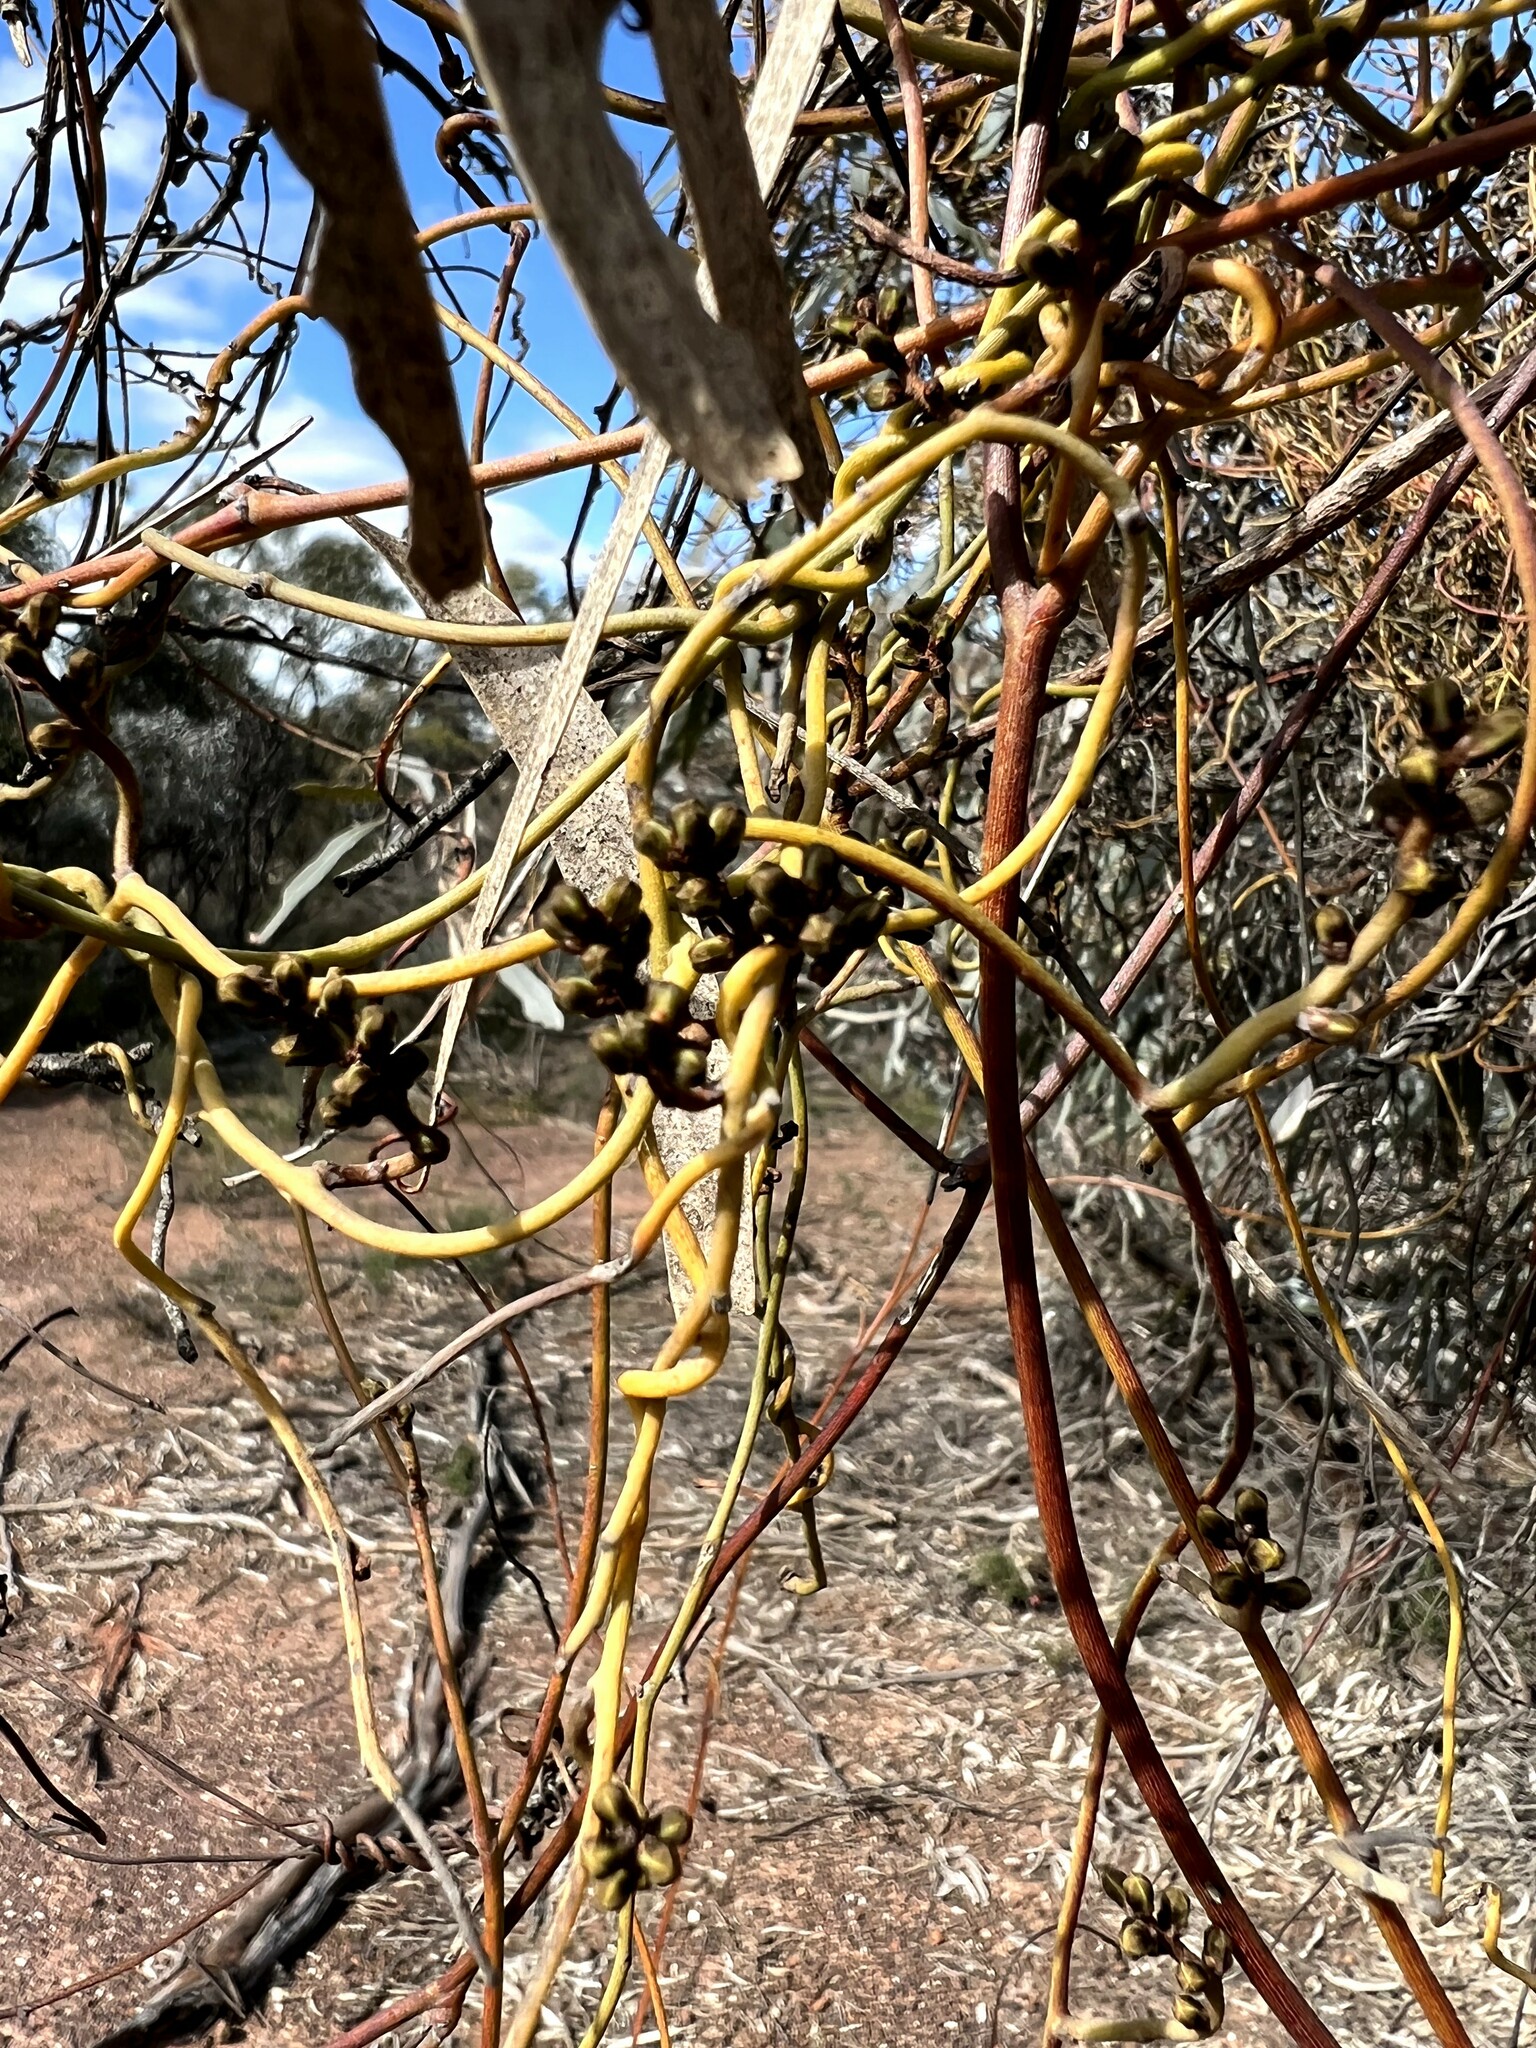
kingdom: Plantae
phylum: Tracheophyta
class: Magnoliopsida
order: Laurales
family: Lauraceae
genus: Cassytha
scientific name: Cassytha melantha
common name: Mallee stranglevine
